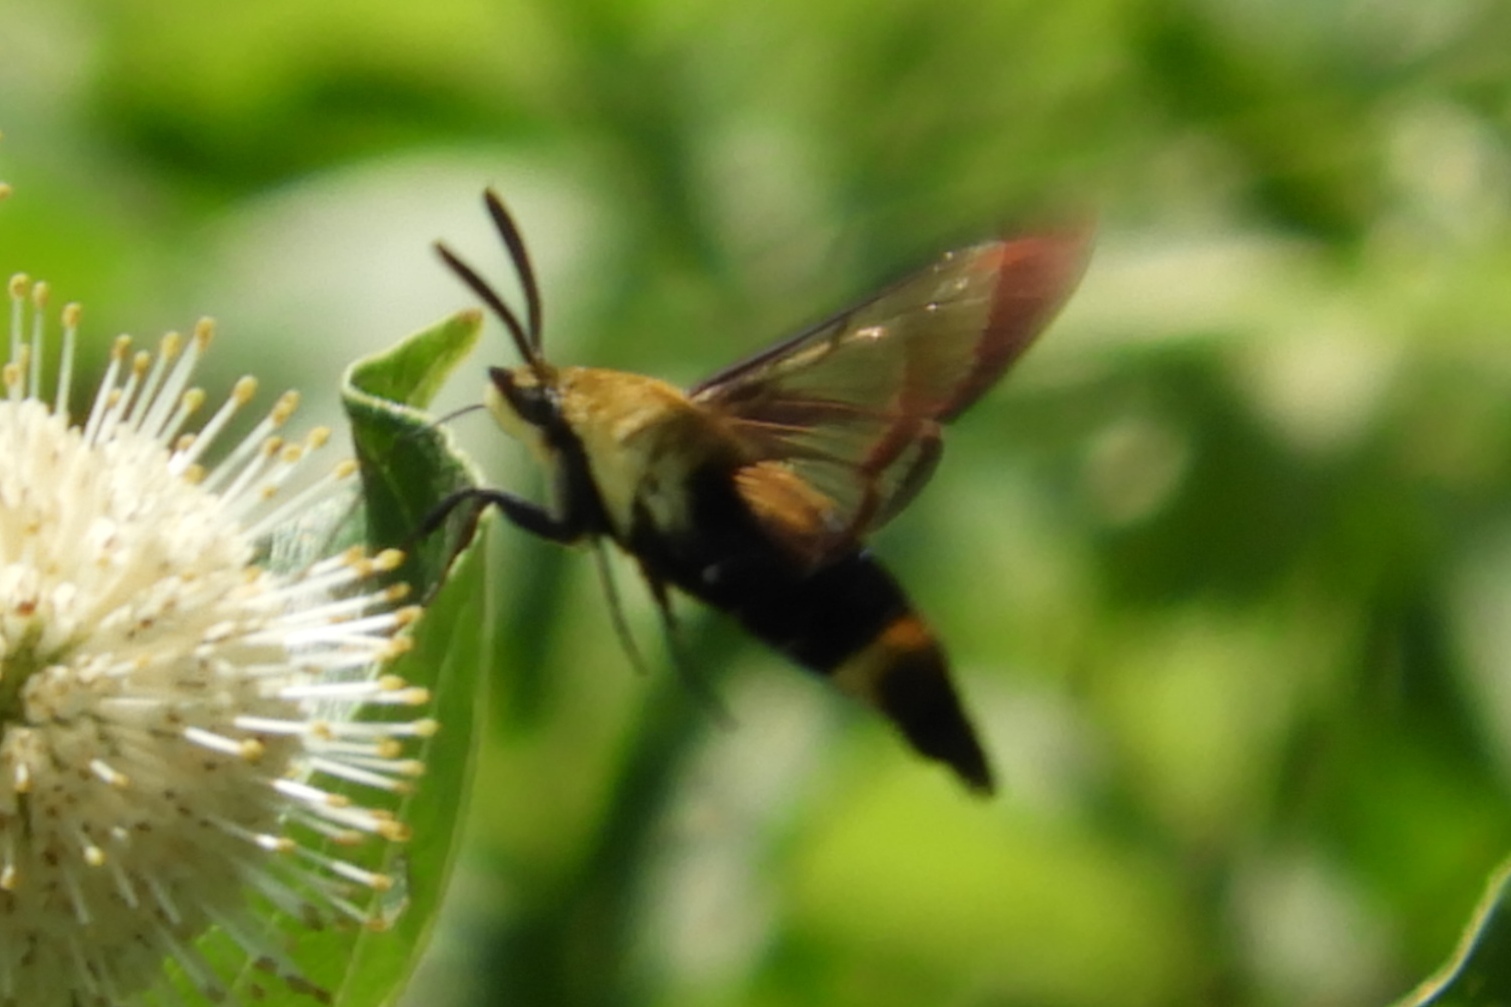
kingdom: Animalia
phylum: Arthropoda
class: Insecta
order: Lepidoptera
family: Sphingidae
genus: Hemaris
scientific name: Hemaris diffinis
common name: Bumblebee moth
